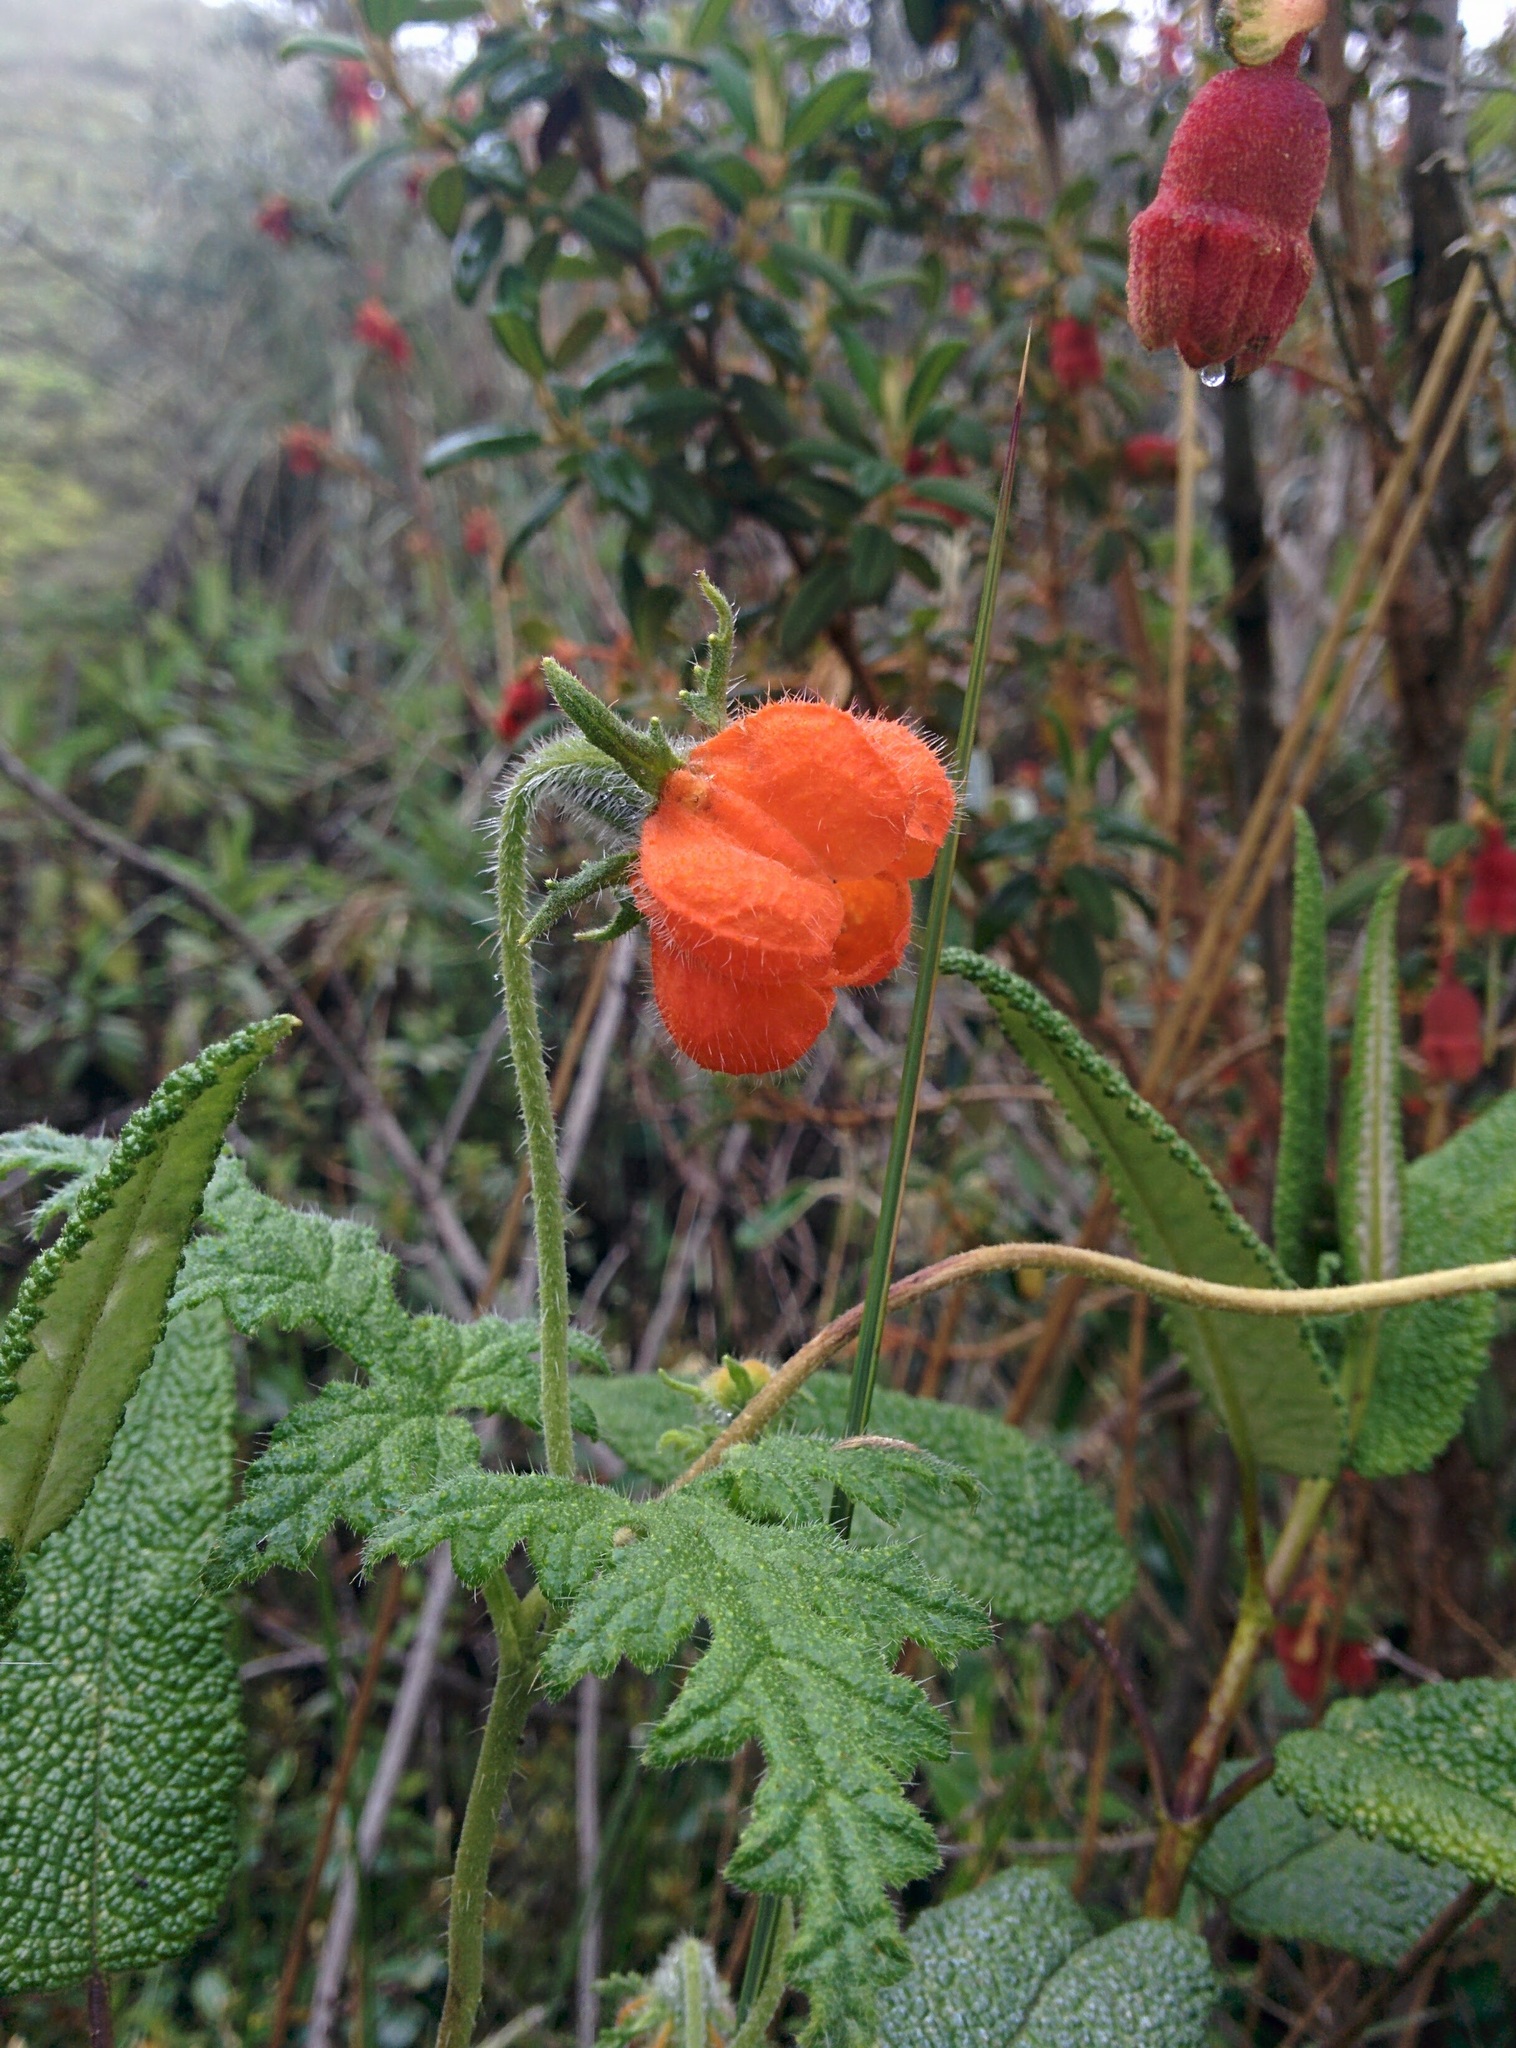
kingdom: Plantae
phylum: Tracheophyta
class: Magnoliopsida
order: Cornales
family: Loasaceae
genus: Caiophora
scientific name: Caiophora contorta
